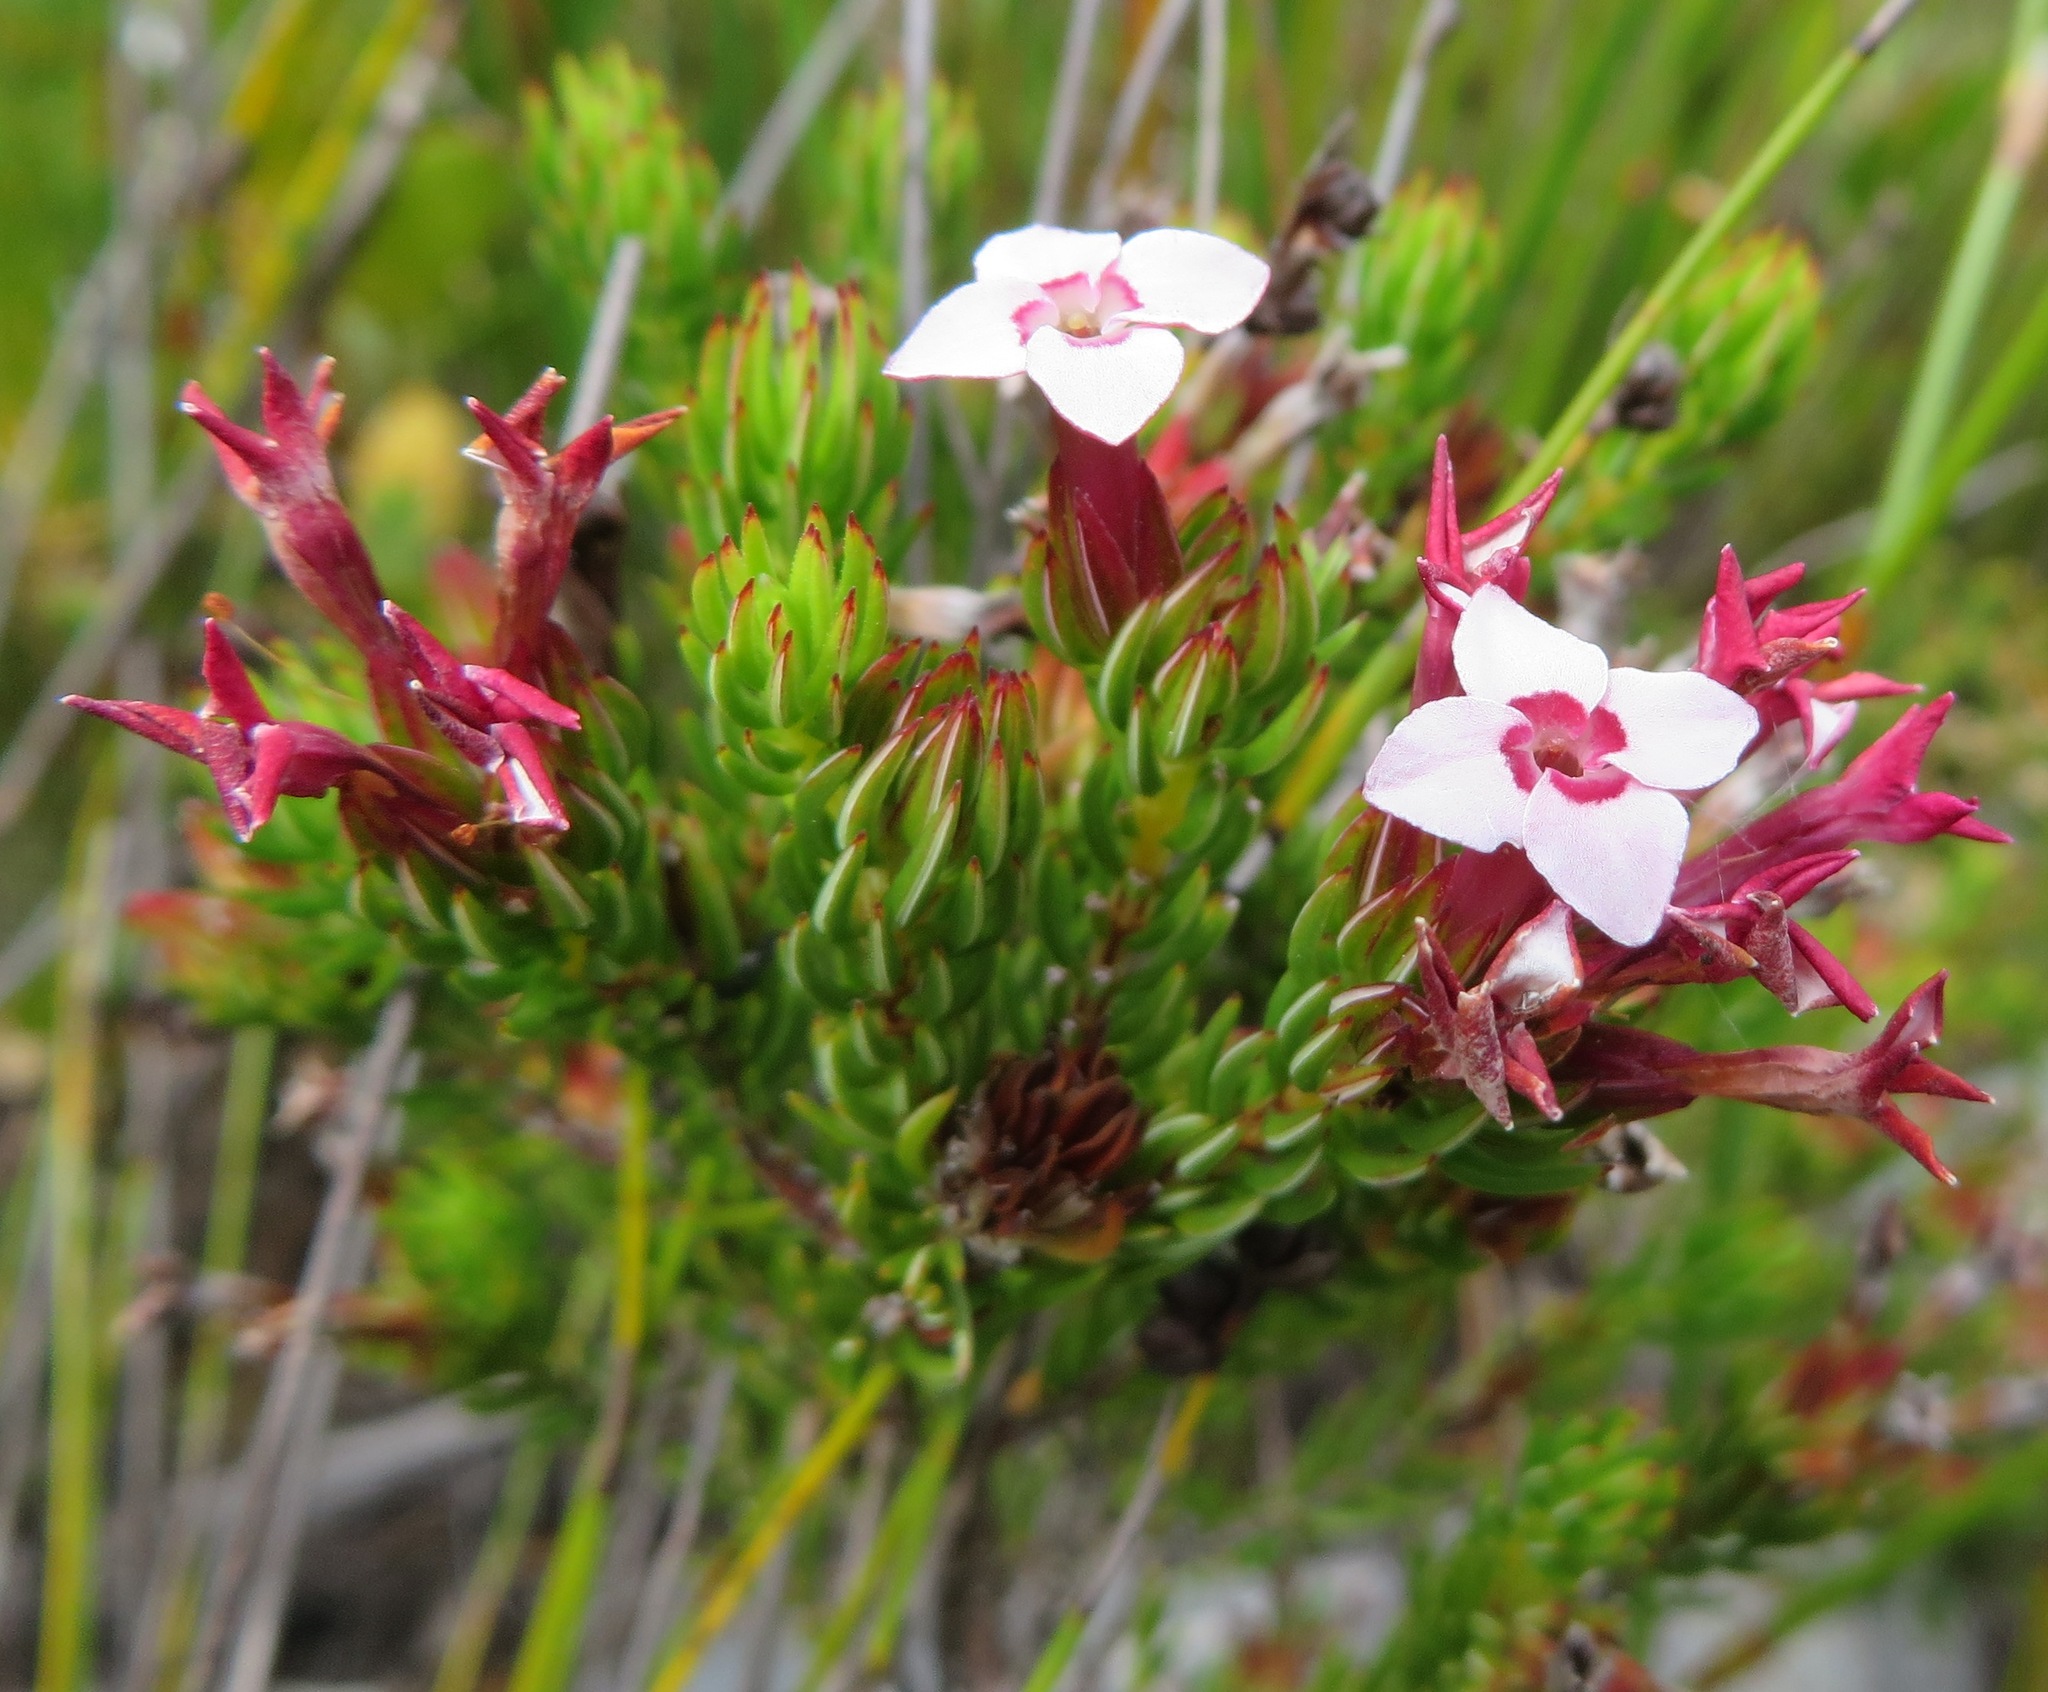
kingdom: Plantae
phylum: Tracheophyta
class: Magnoliopsida
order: Ericales
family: Ericaceae
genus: Erica
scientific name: Erica fastigiata
